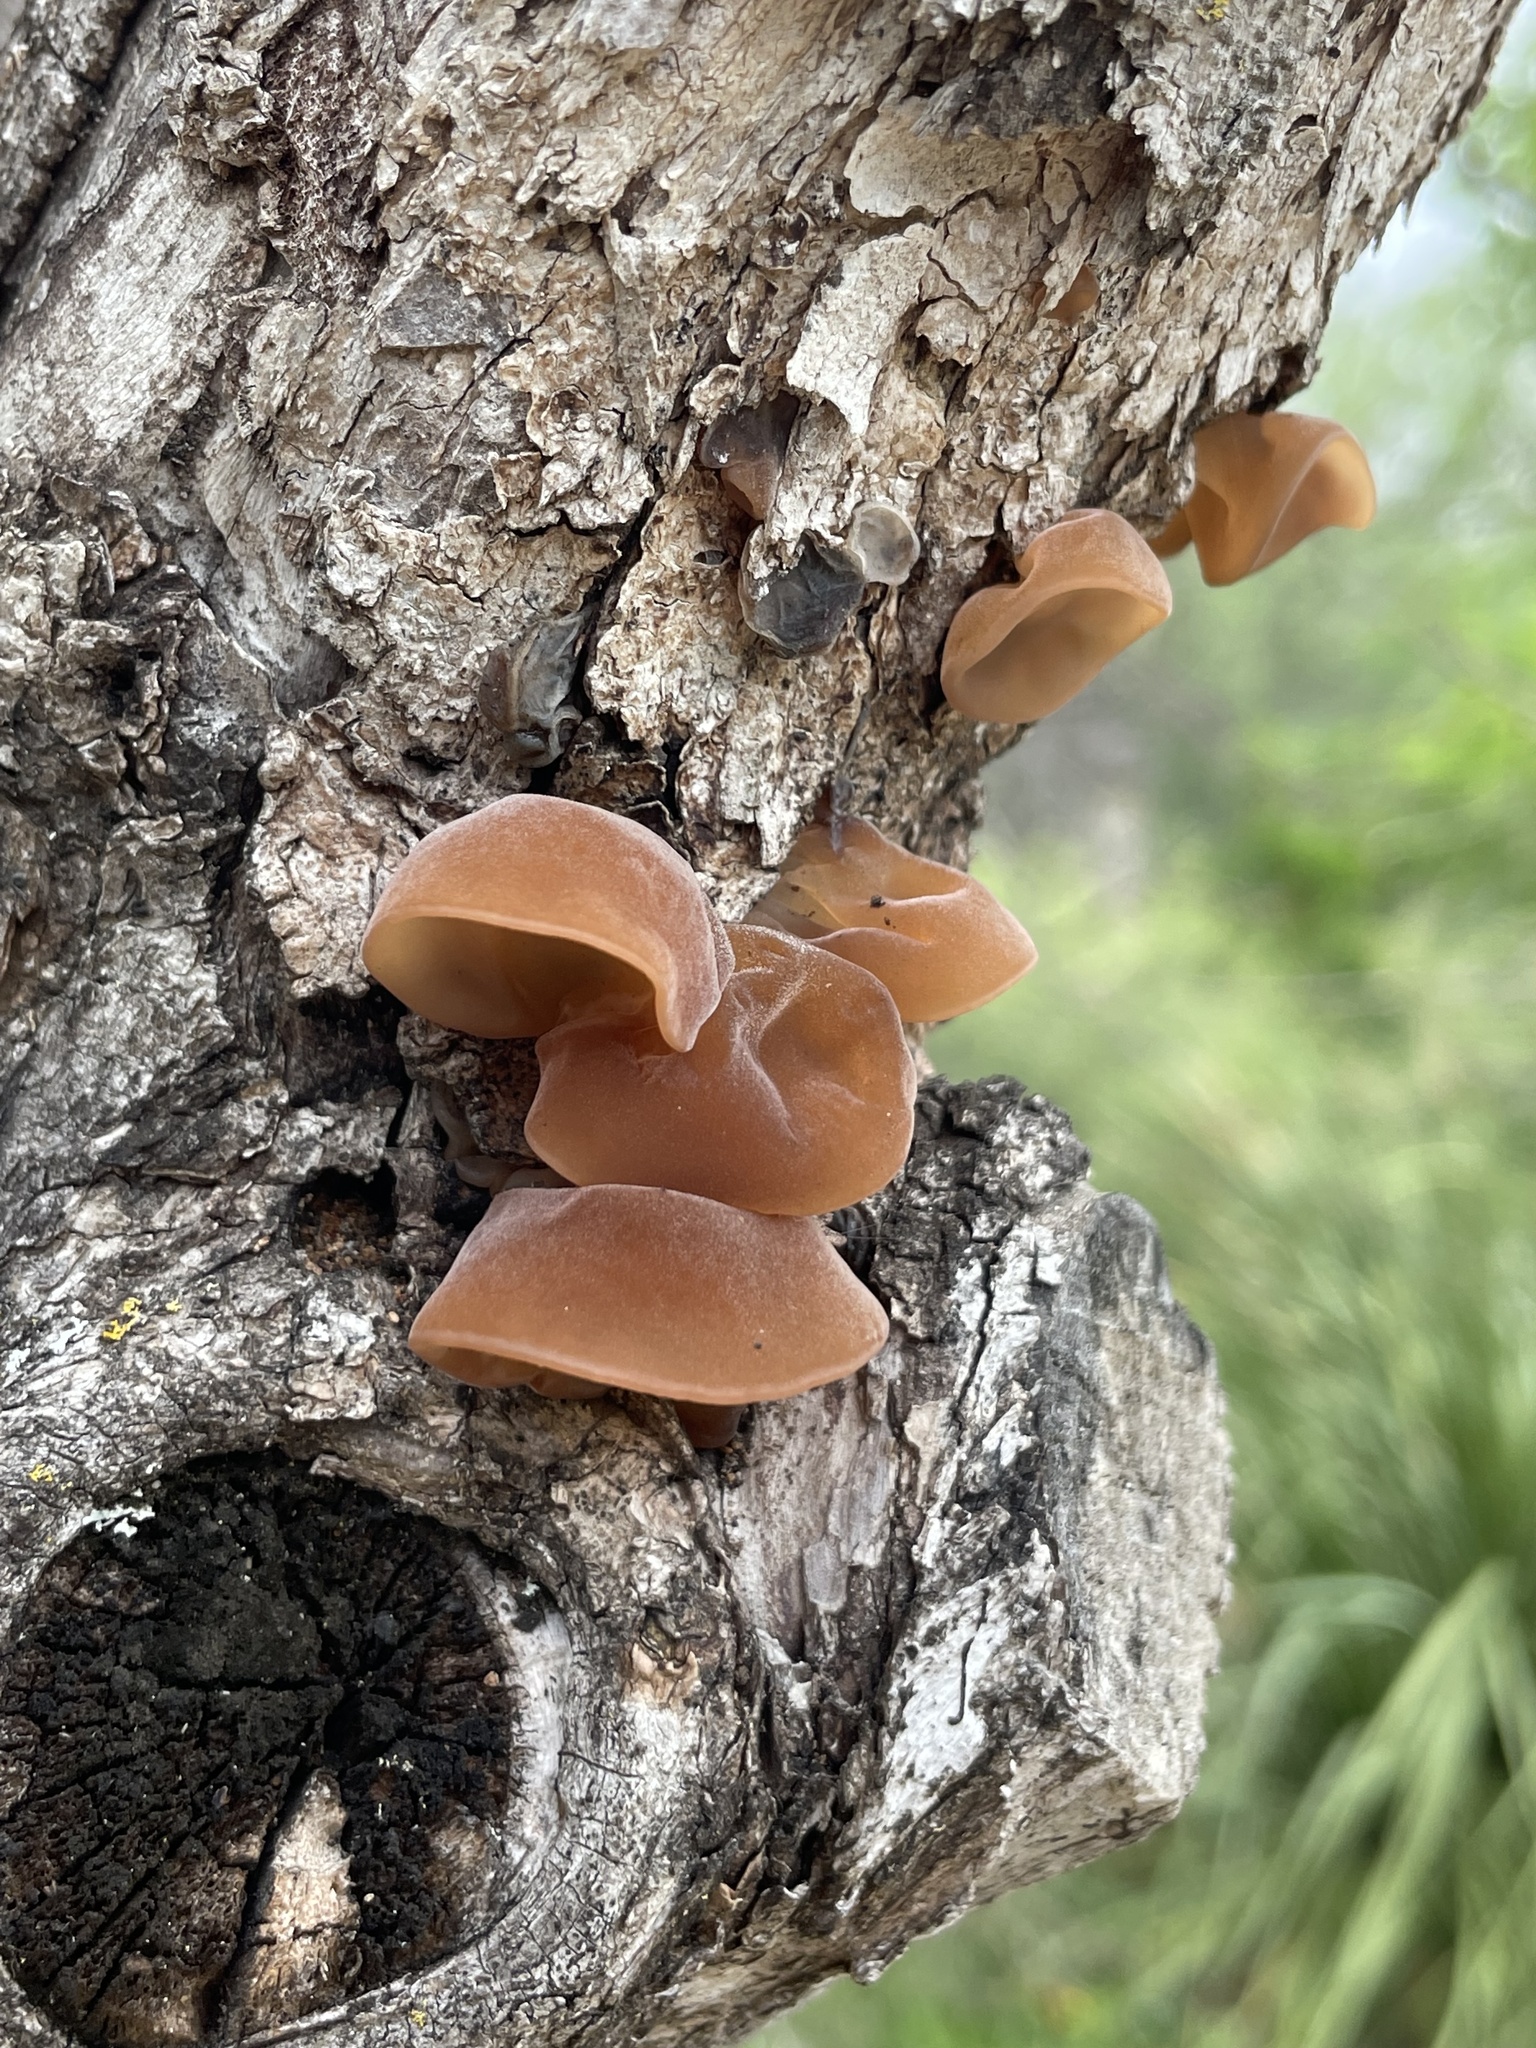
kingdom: Fungi
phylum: Basidiomycota
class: Agaricomycetes
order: Auriculariales
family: Auriculariaceae
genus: Auricularia
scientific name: Auricularia angiospermarum
